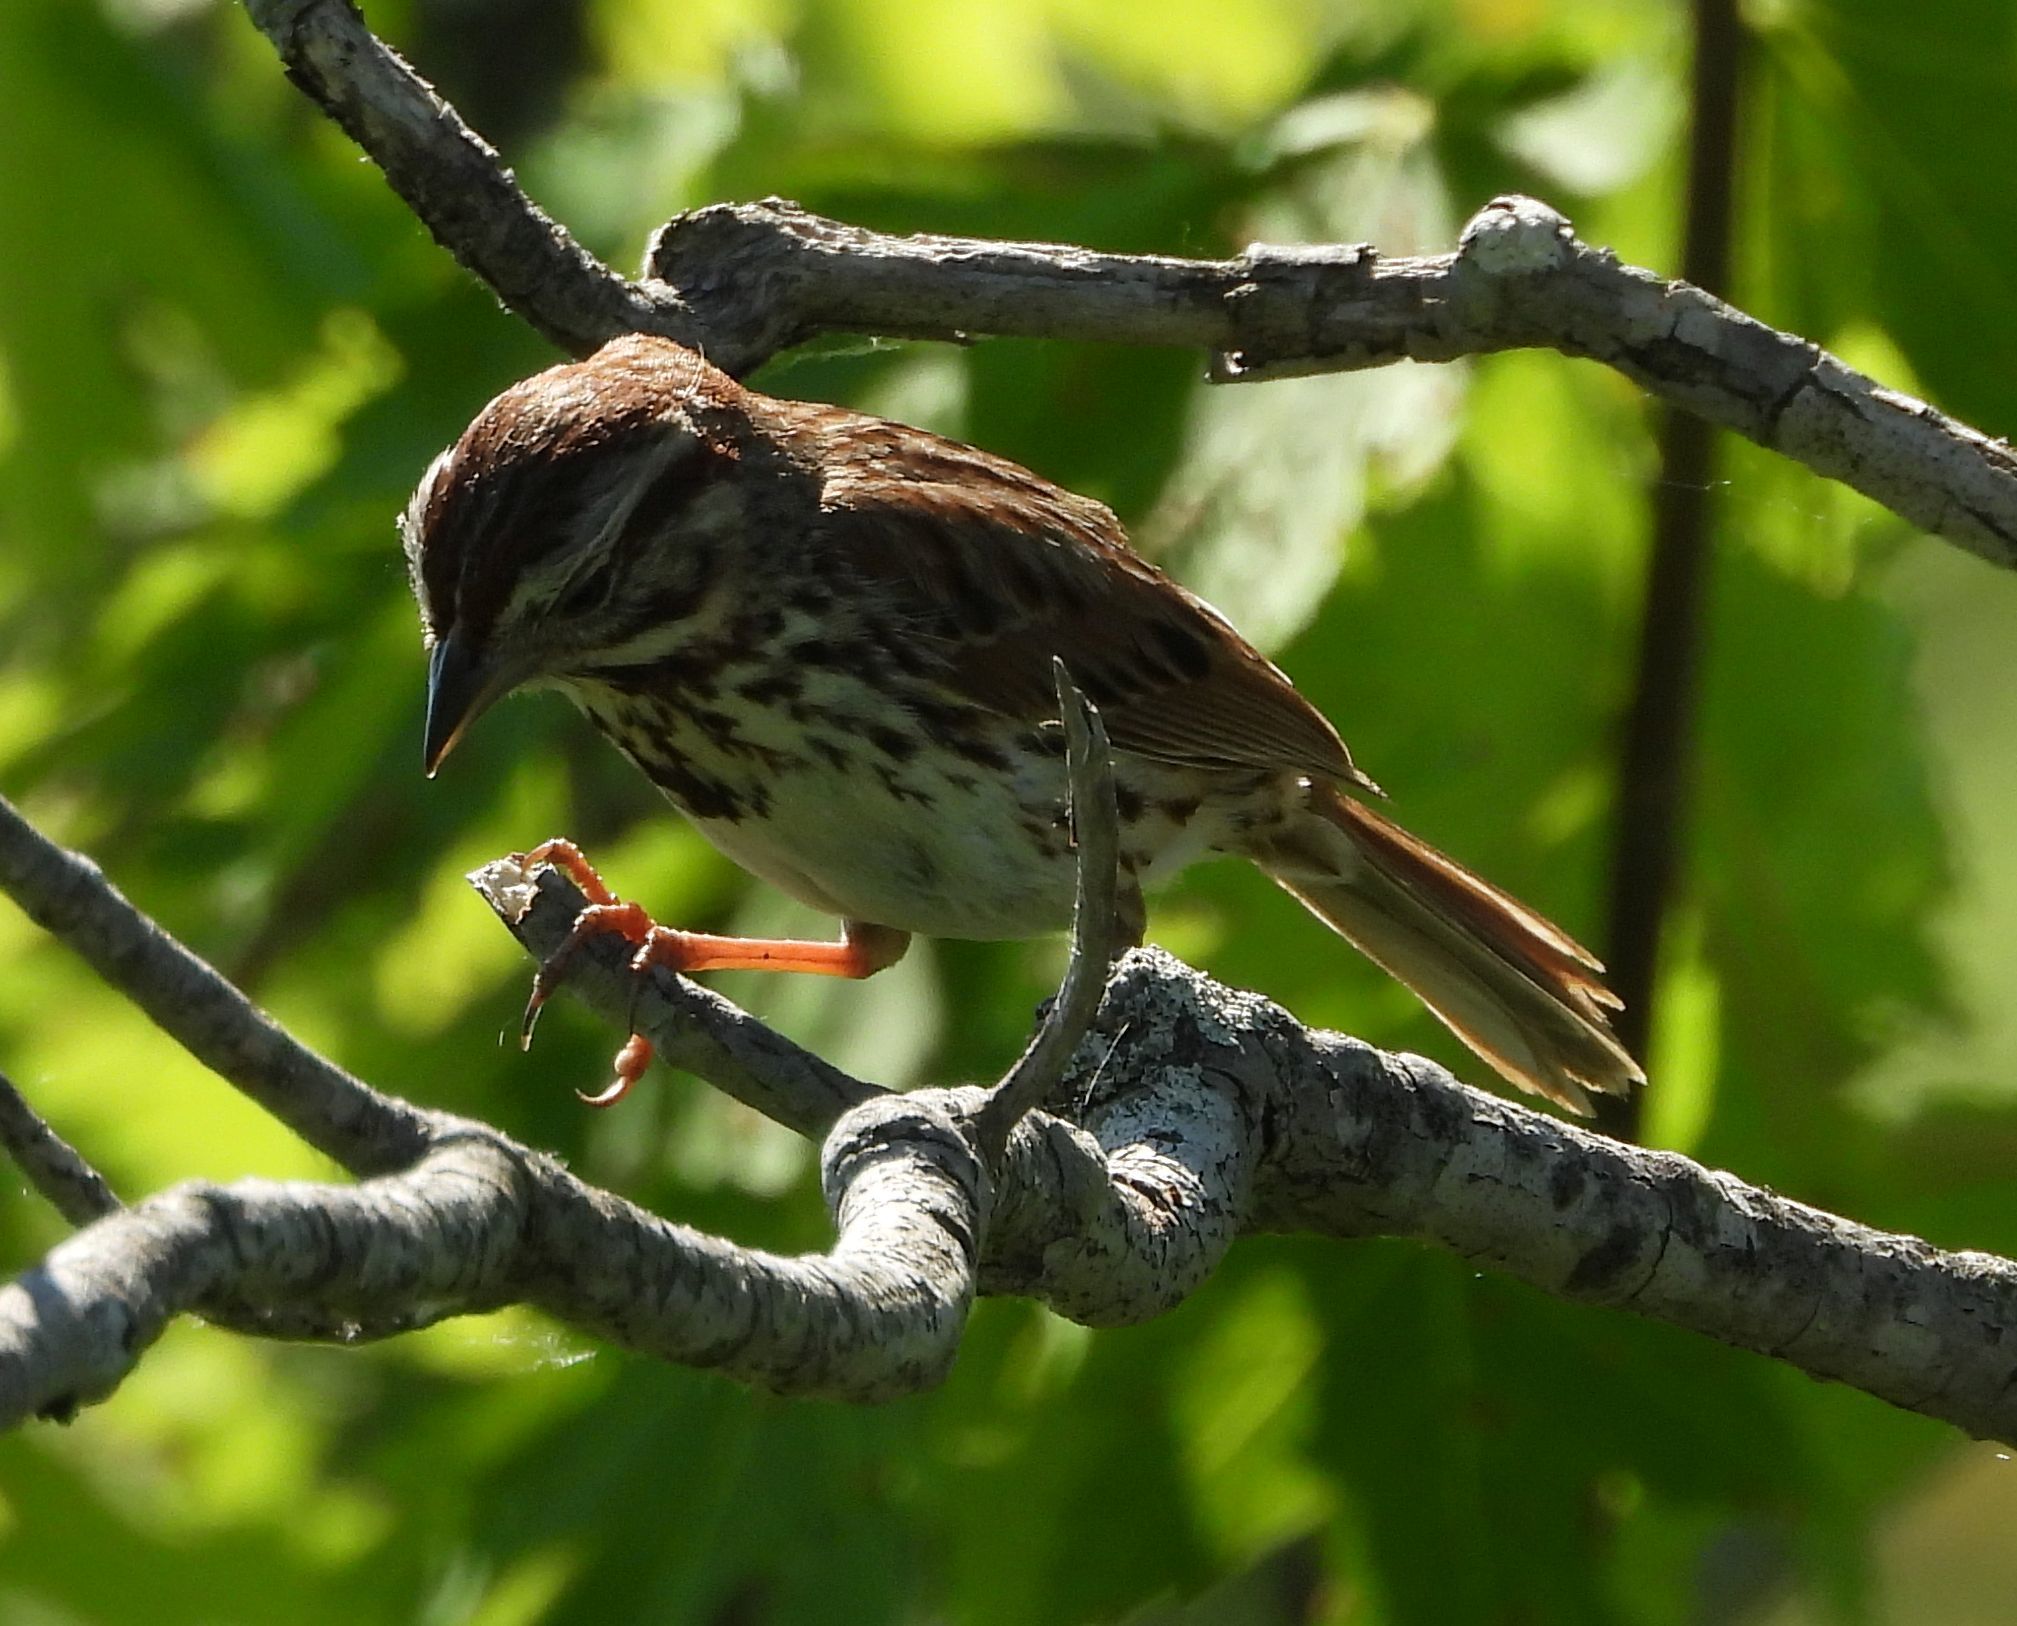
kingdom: Animalia
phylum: Chordata
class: Aves
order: Passeriformes
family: Passerellidae
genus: Melospiza
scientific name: Melospiza melodia
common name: Song sparrow
